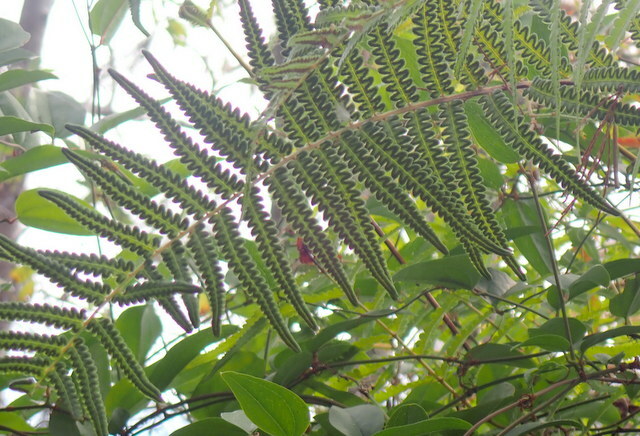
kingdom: Plantae
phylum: Tracheophyta
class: Polypodiopsida
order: Polypodiales
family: Thelypteridaceae
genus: Cyclosorus
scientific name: Cyclosorus interruptus
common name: Neke fern
